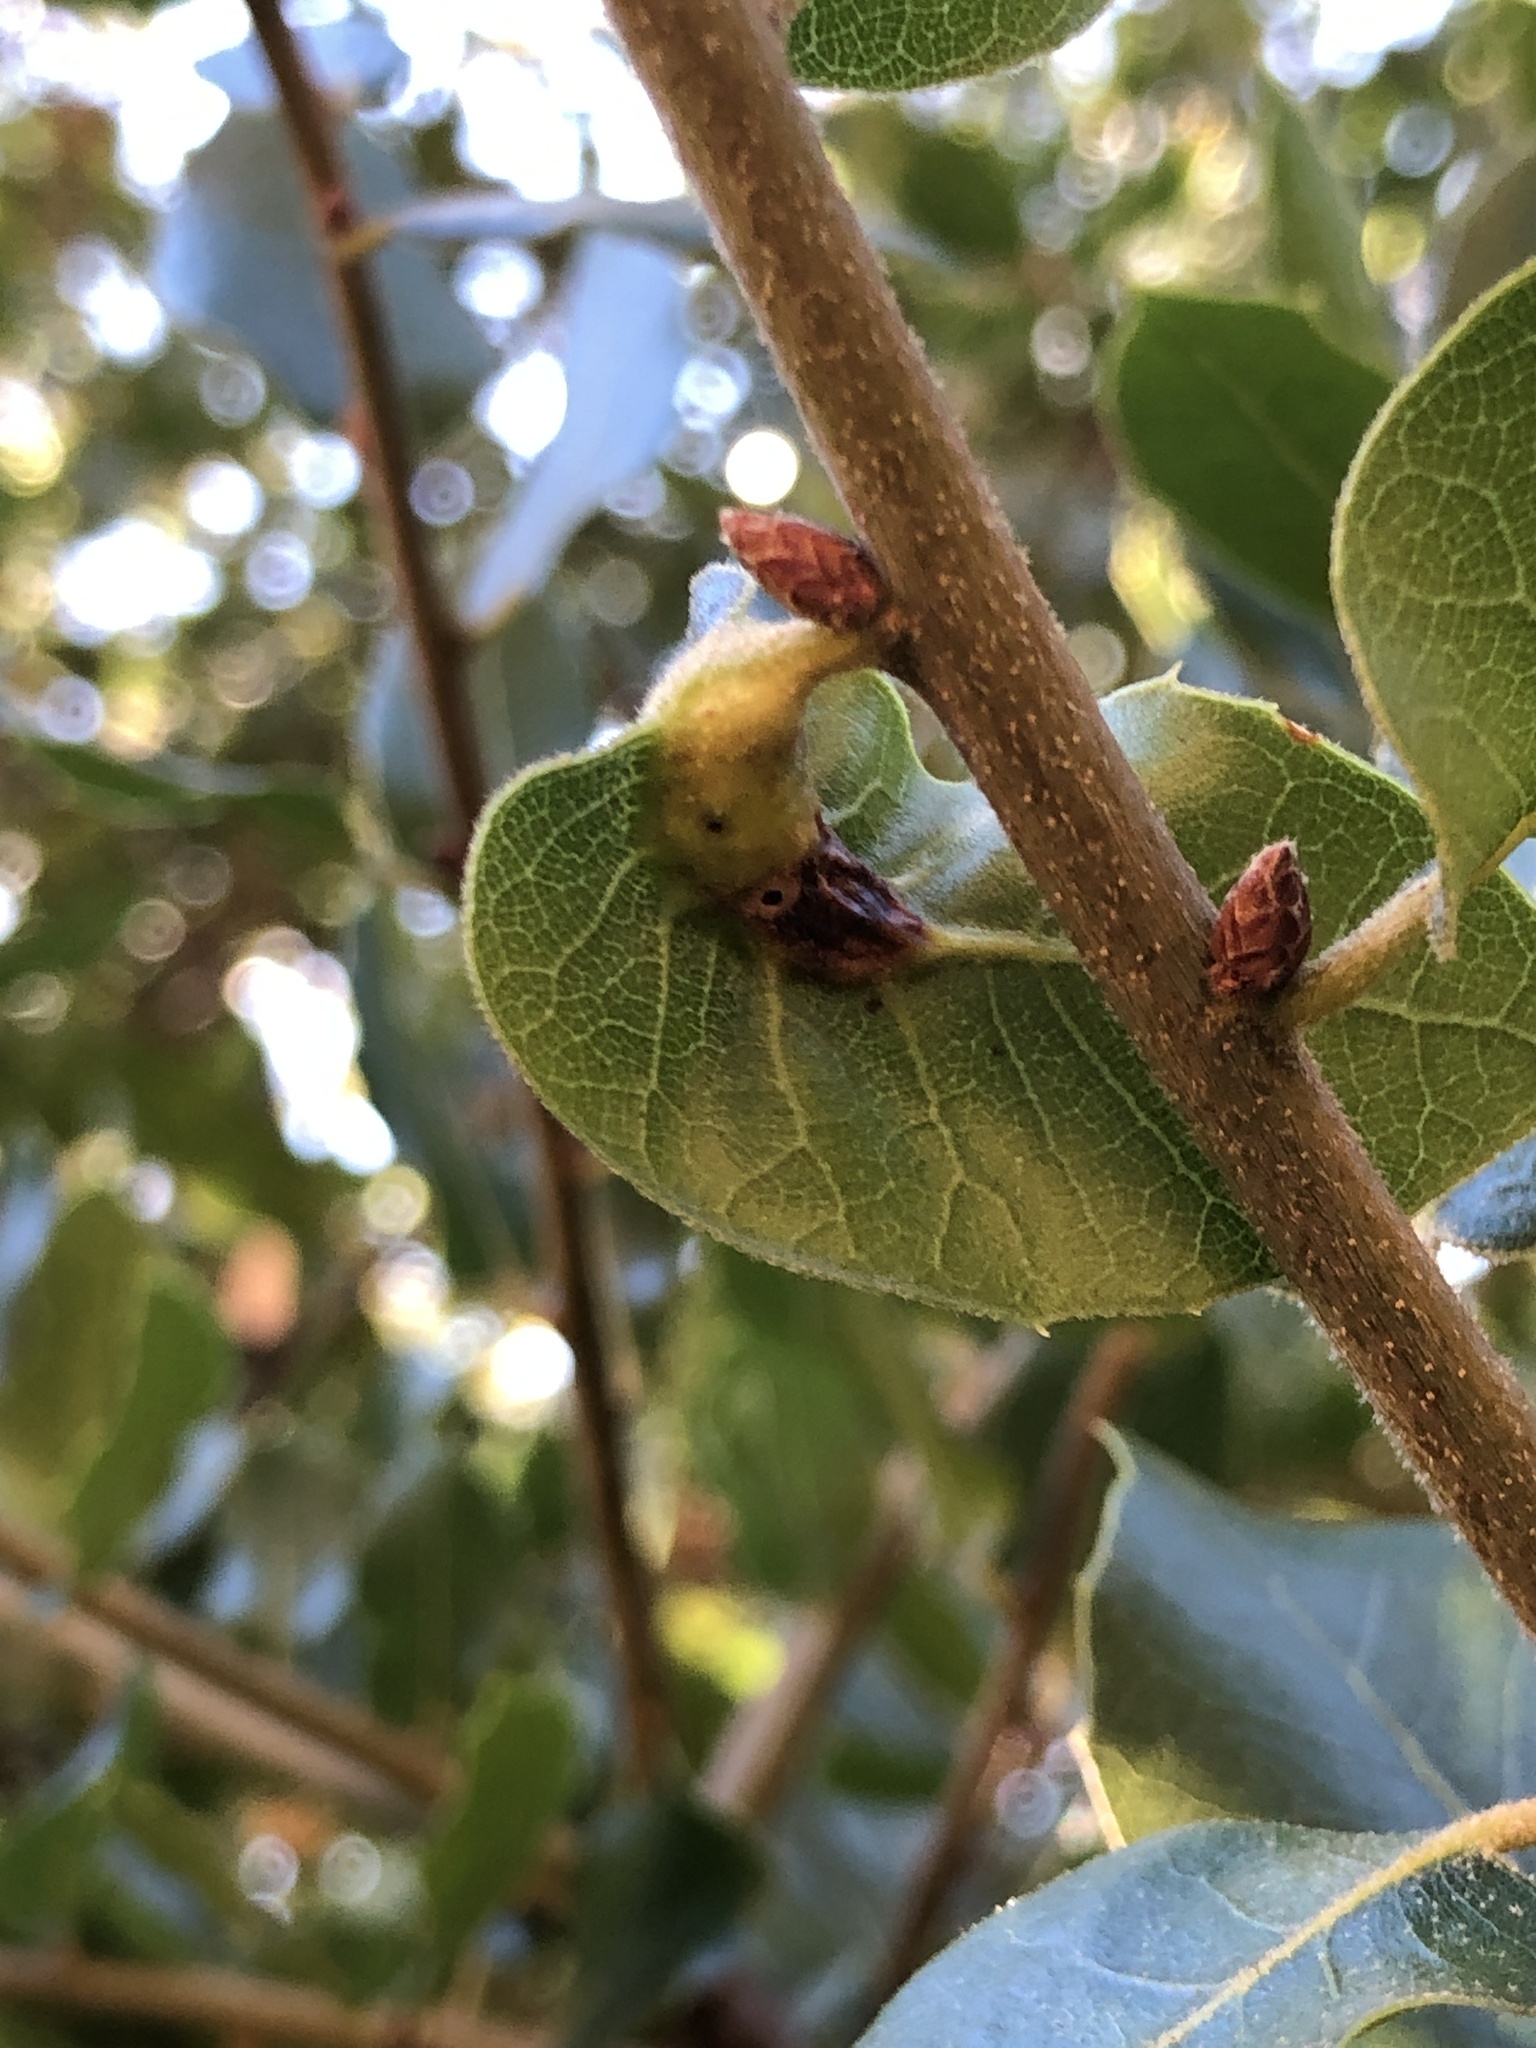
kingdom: Animalia
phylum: Arthropoda
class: Insecta
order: Hymenoptera
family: Cynipidae
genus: Melikaiella
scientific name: Melikaiella
